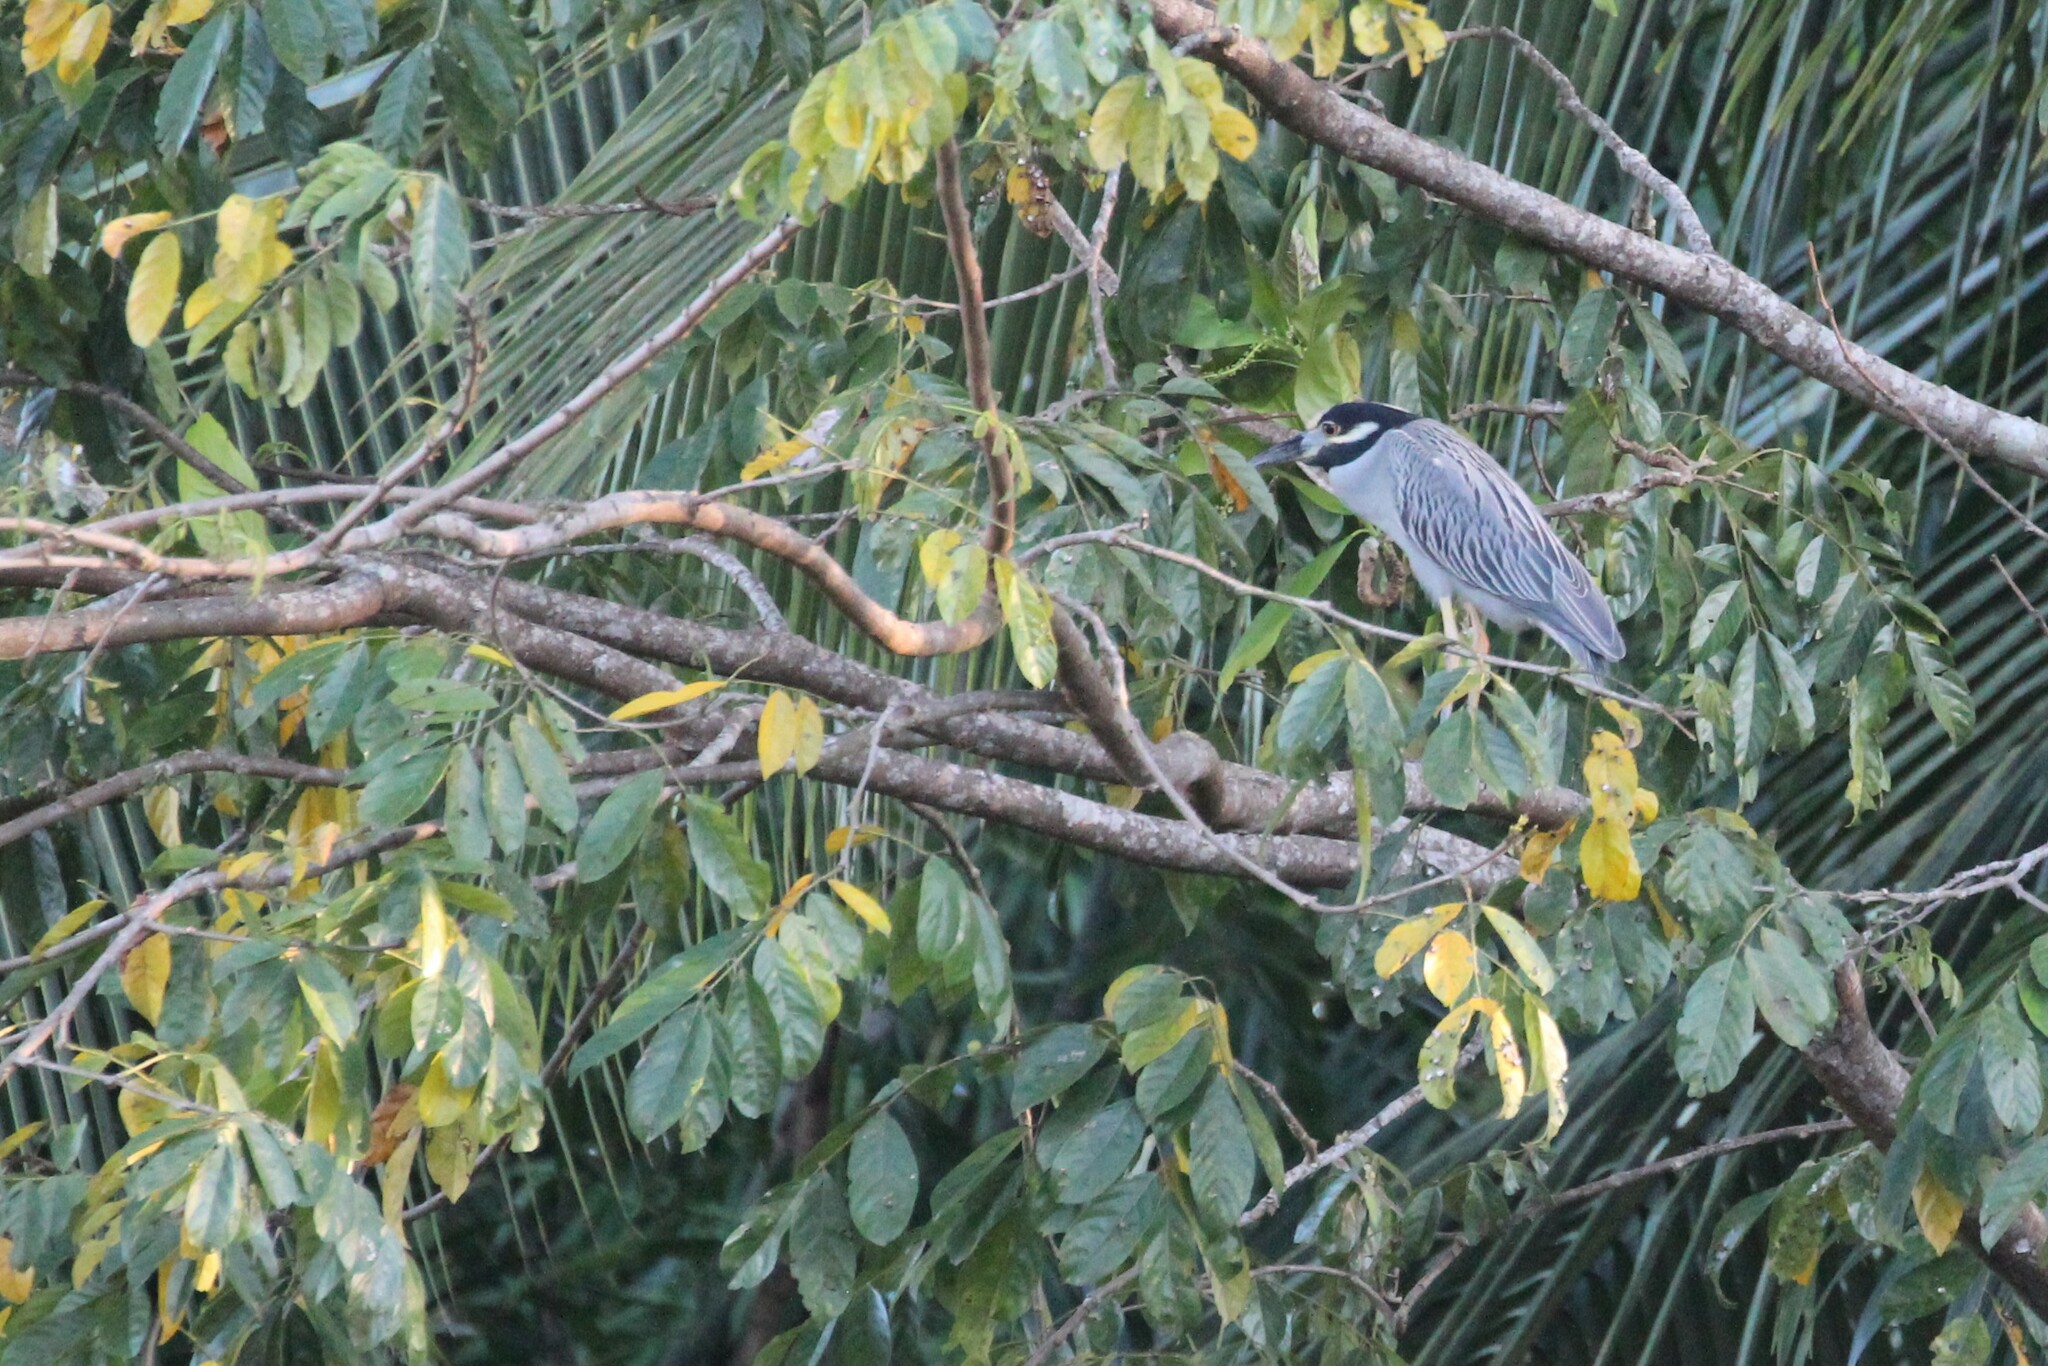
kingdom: Animalia
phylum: Chordata
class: Aves
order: Pelecaniformes
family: Ardeidae
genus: Nyctanassa
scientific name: Nyctanassa violacea
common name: Yellow-crowned night heron
